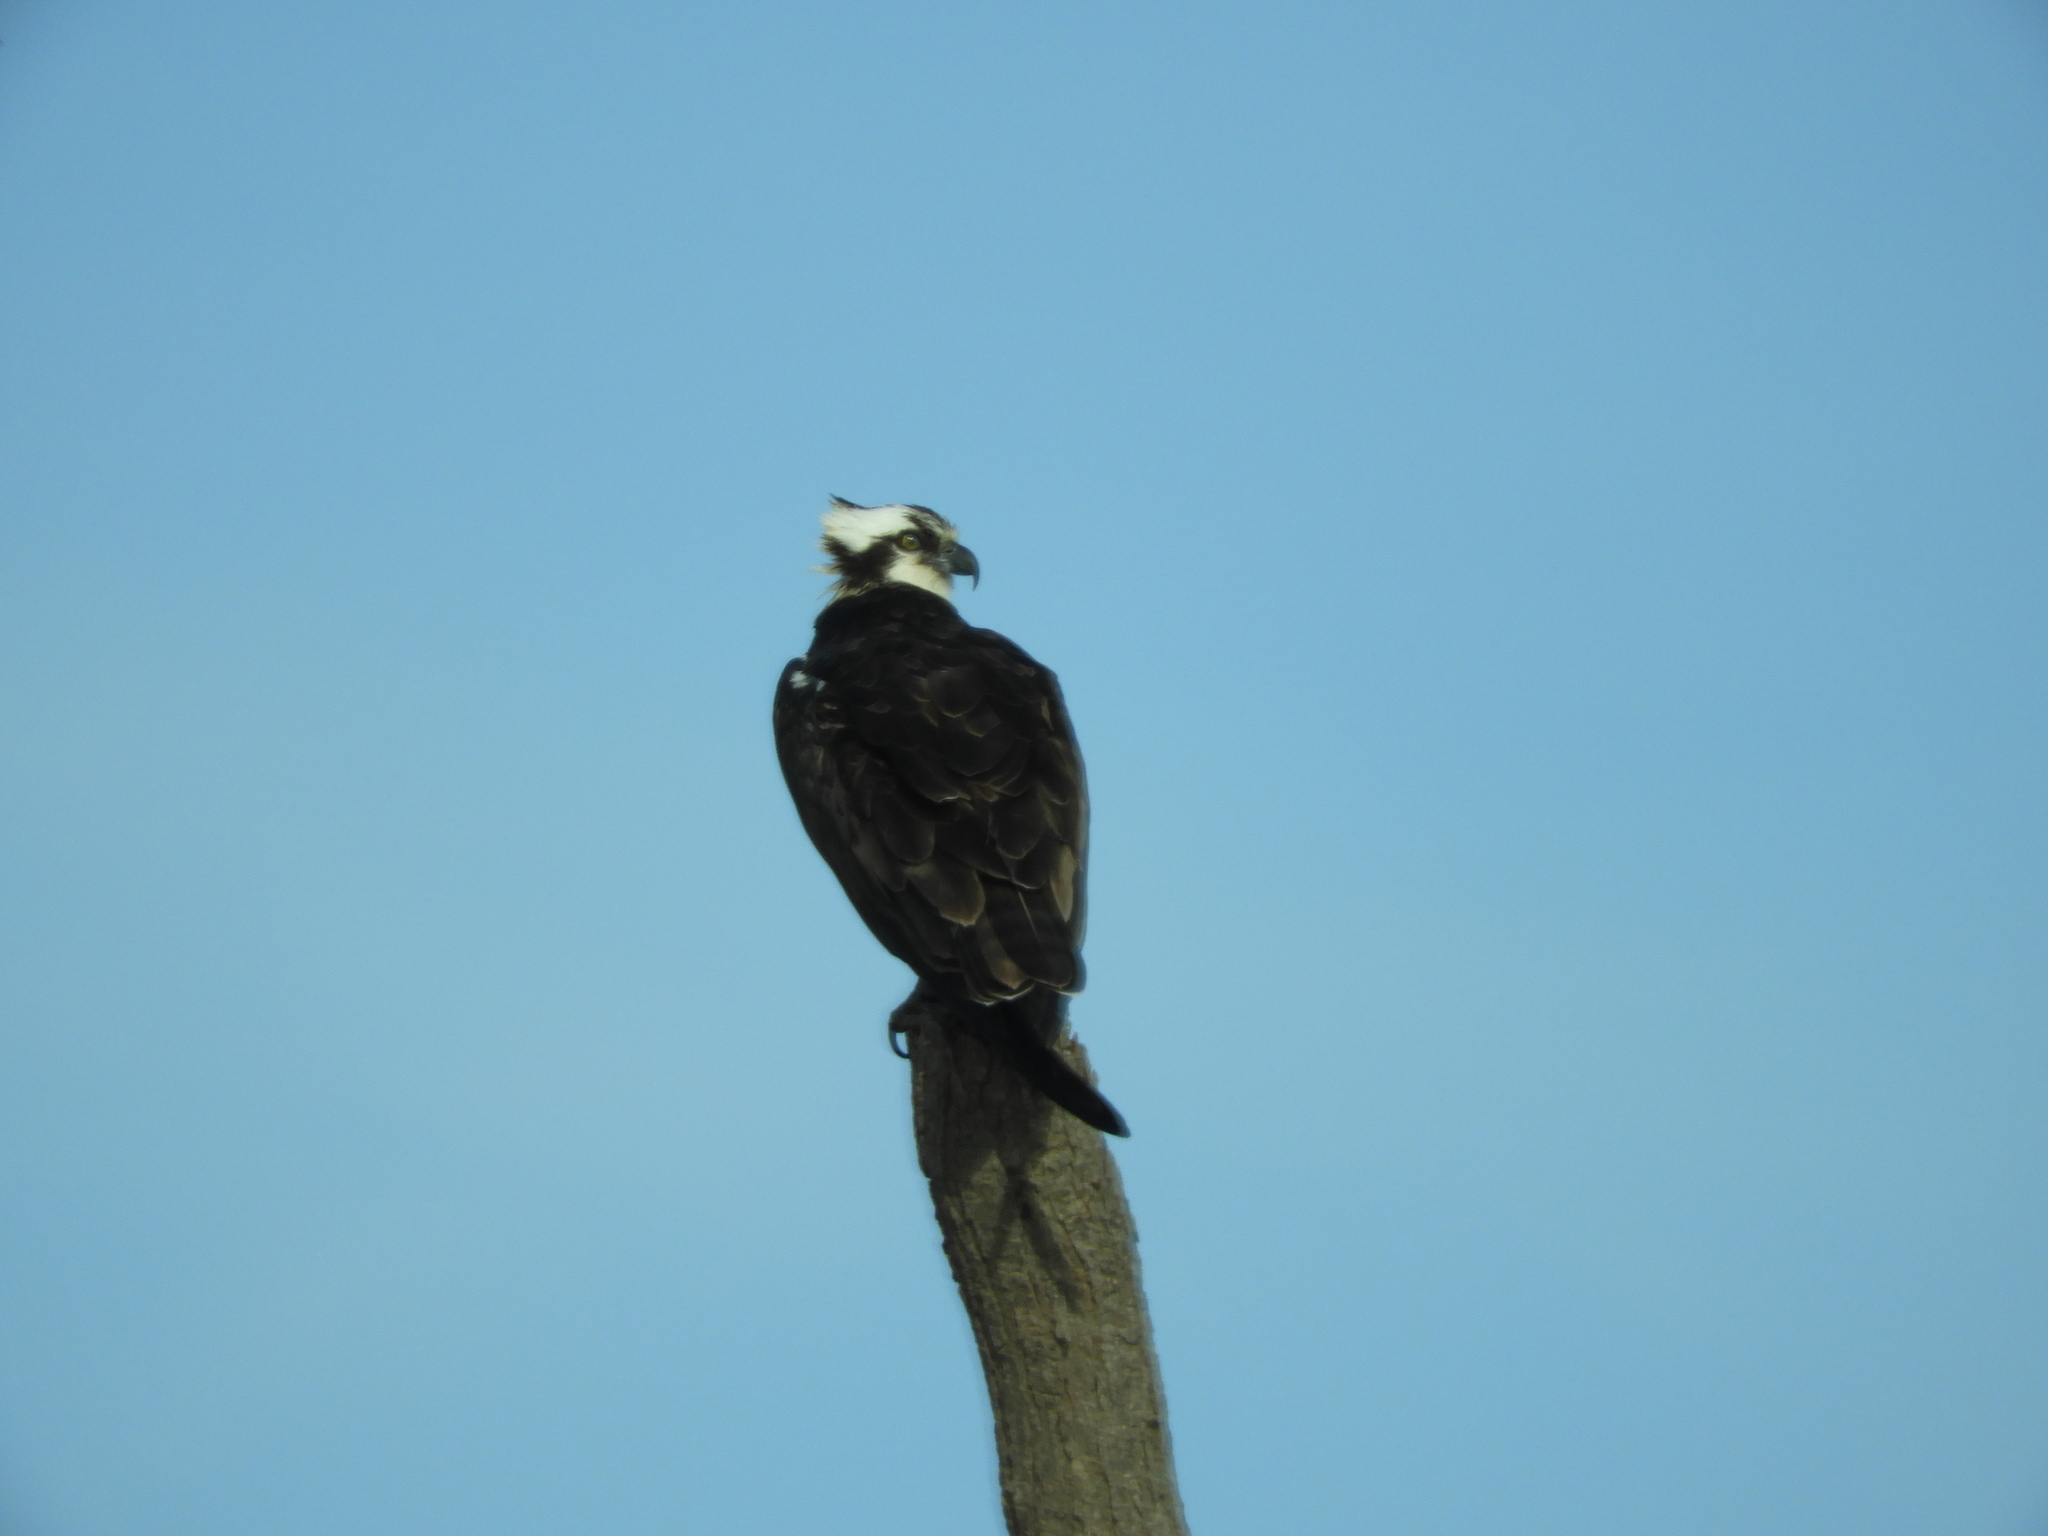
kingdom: Animalia
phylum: Chordata
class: Aves
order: Accipitriformes
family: Pandionidae
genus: Pandion
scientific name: Pandion haliaetus
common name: Osprey
